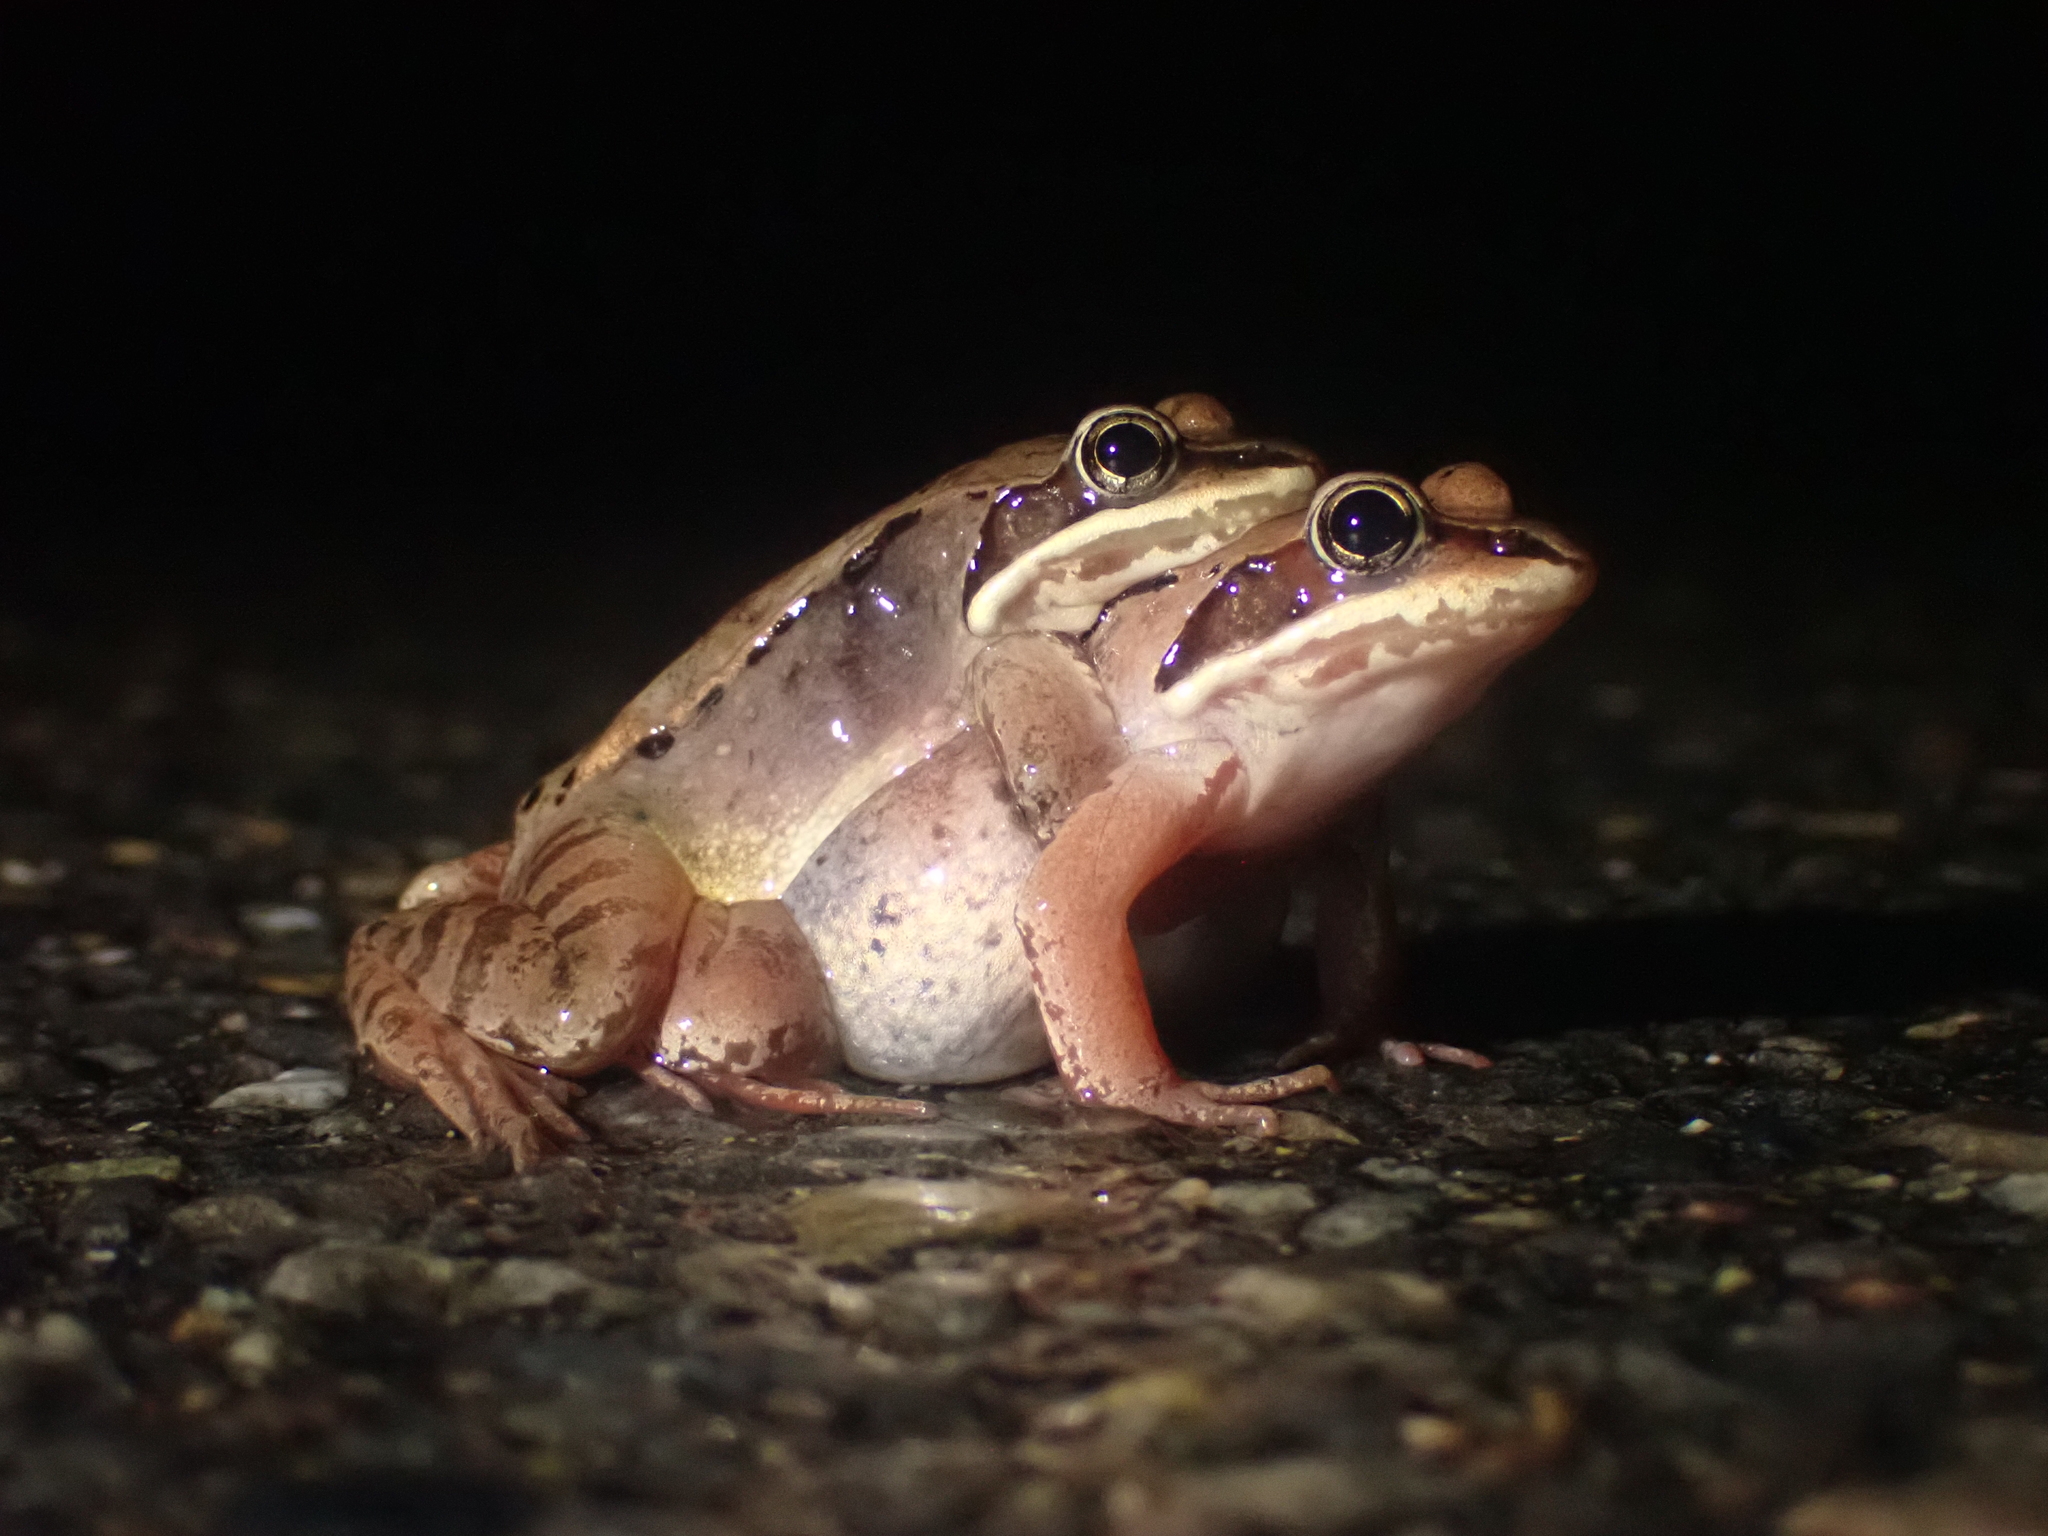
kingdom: Animalia
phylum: Chordata
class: Amphibia
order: Anura
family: Ranidae
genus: Lithobates
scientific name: Lithobates sylvaticus
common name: Wood frog
